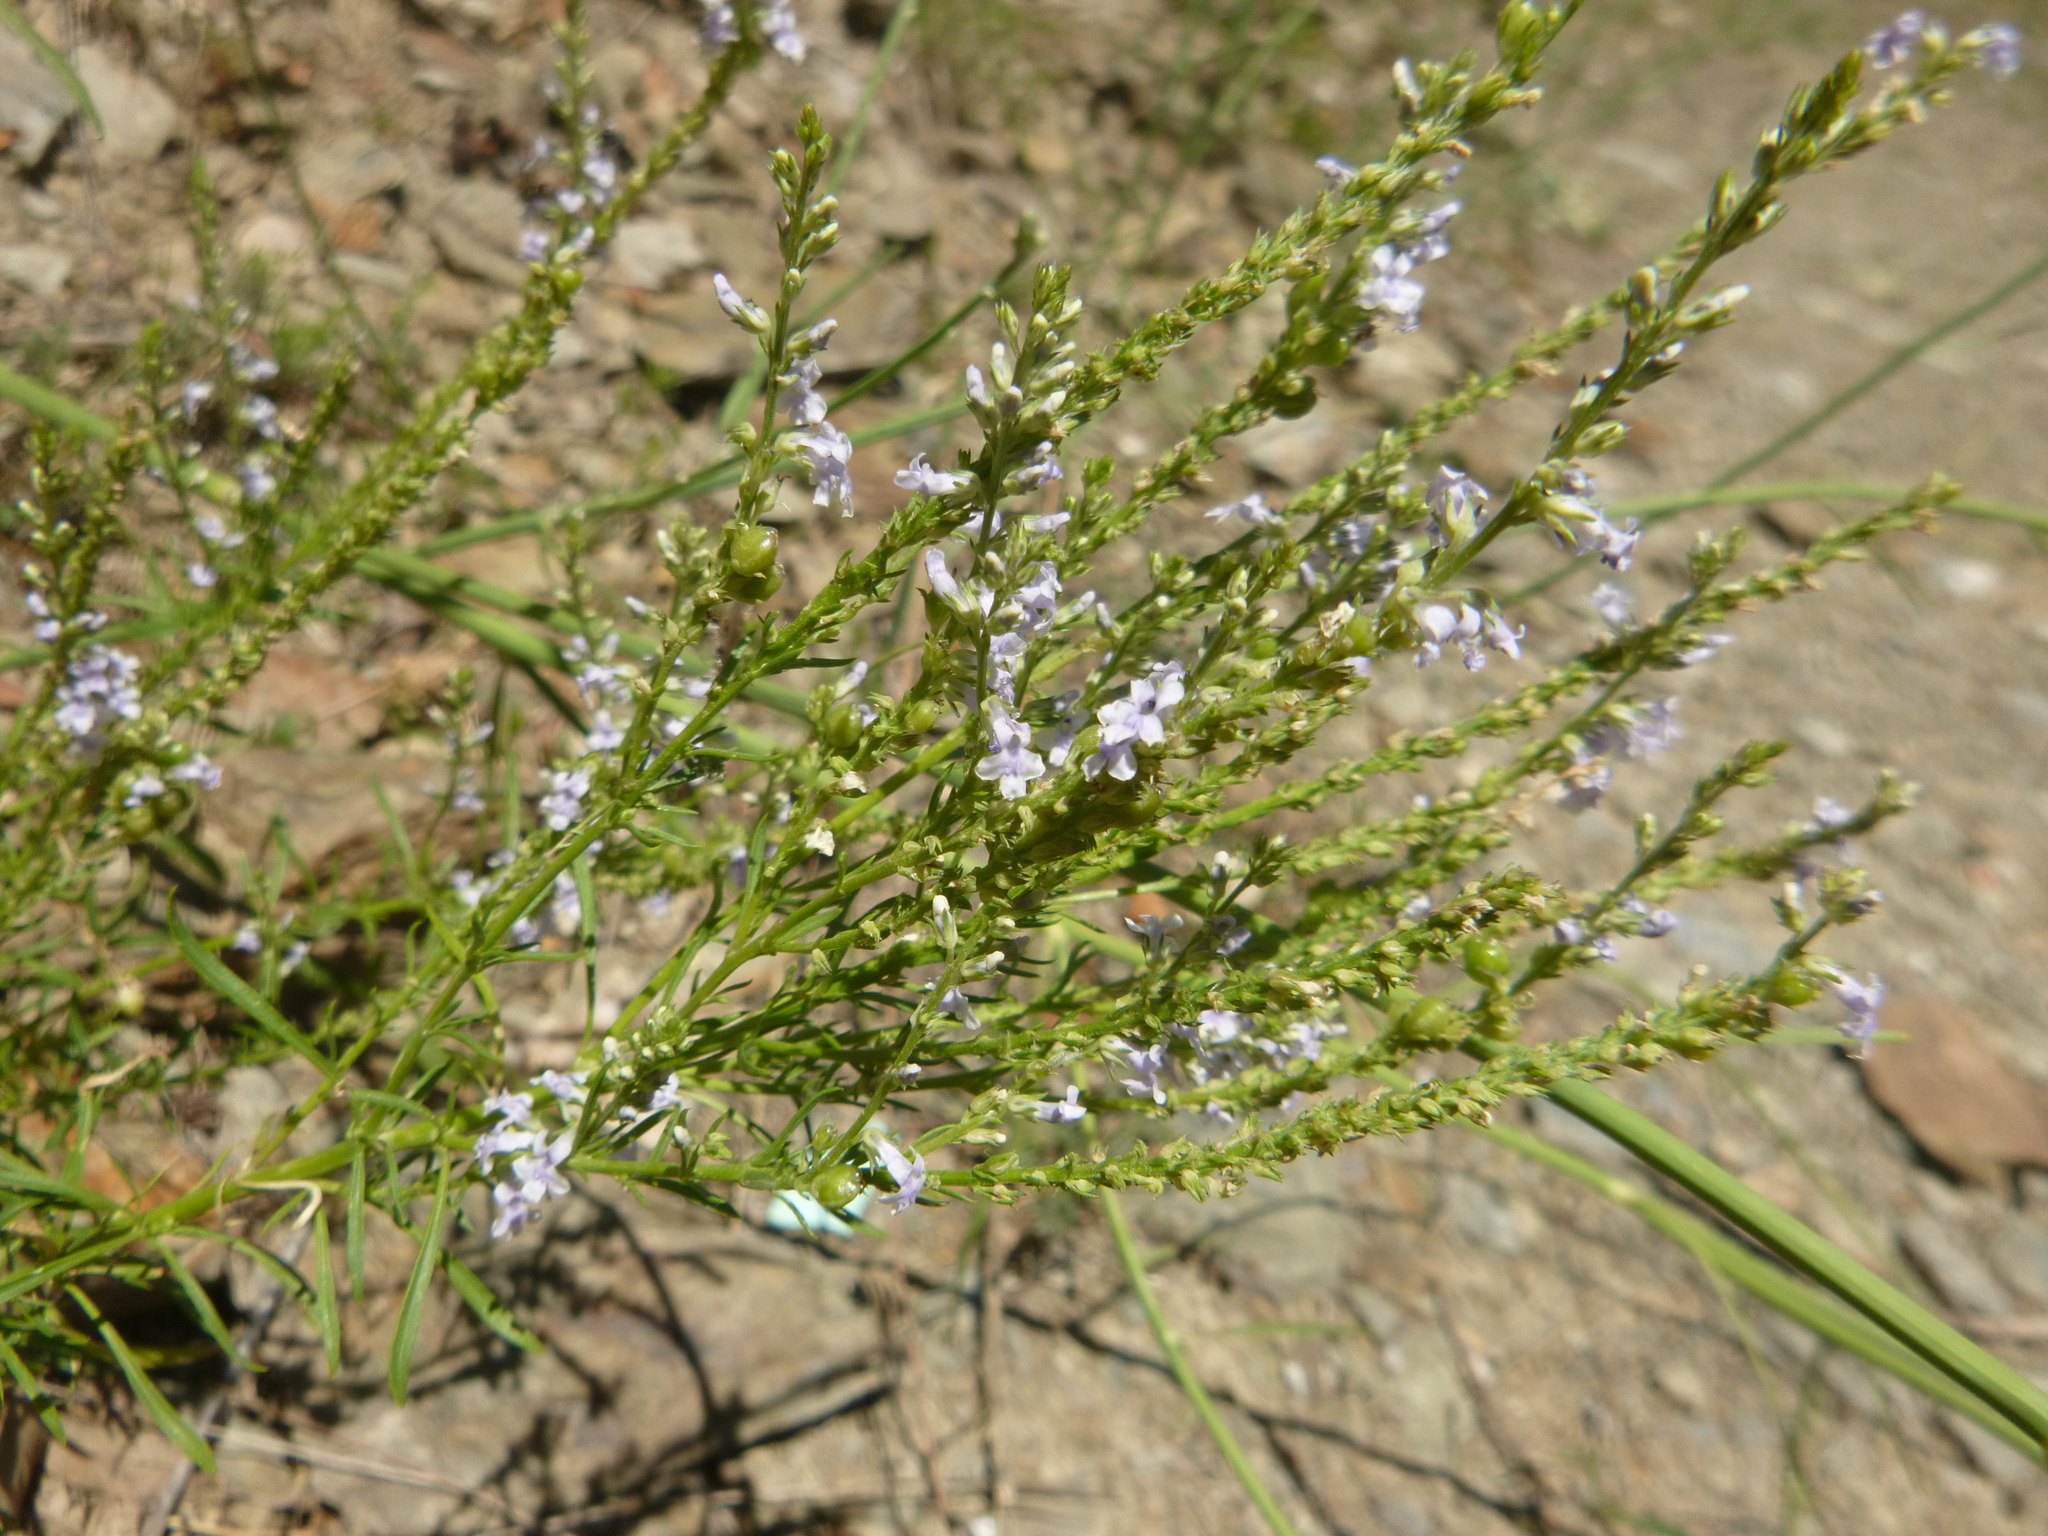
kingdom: Plantae
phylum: Tracheophyta
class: Magnoliopsida
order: Lamiales
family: Plantaginaceae
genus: Anarrhinum
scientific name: Anarrhinum bellidifolium
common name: Daisy-leaved toadflax
